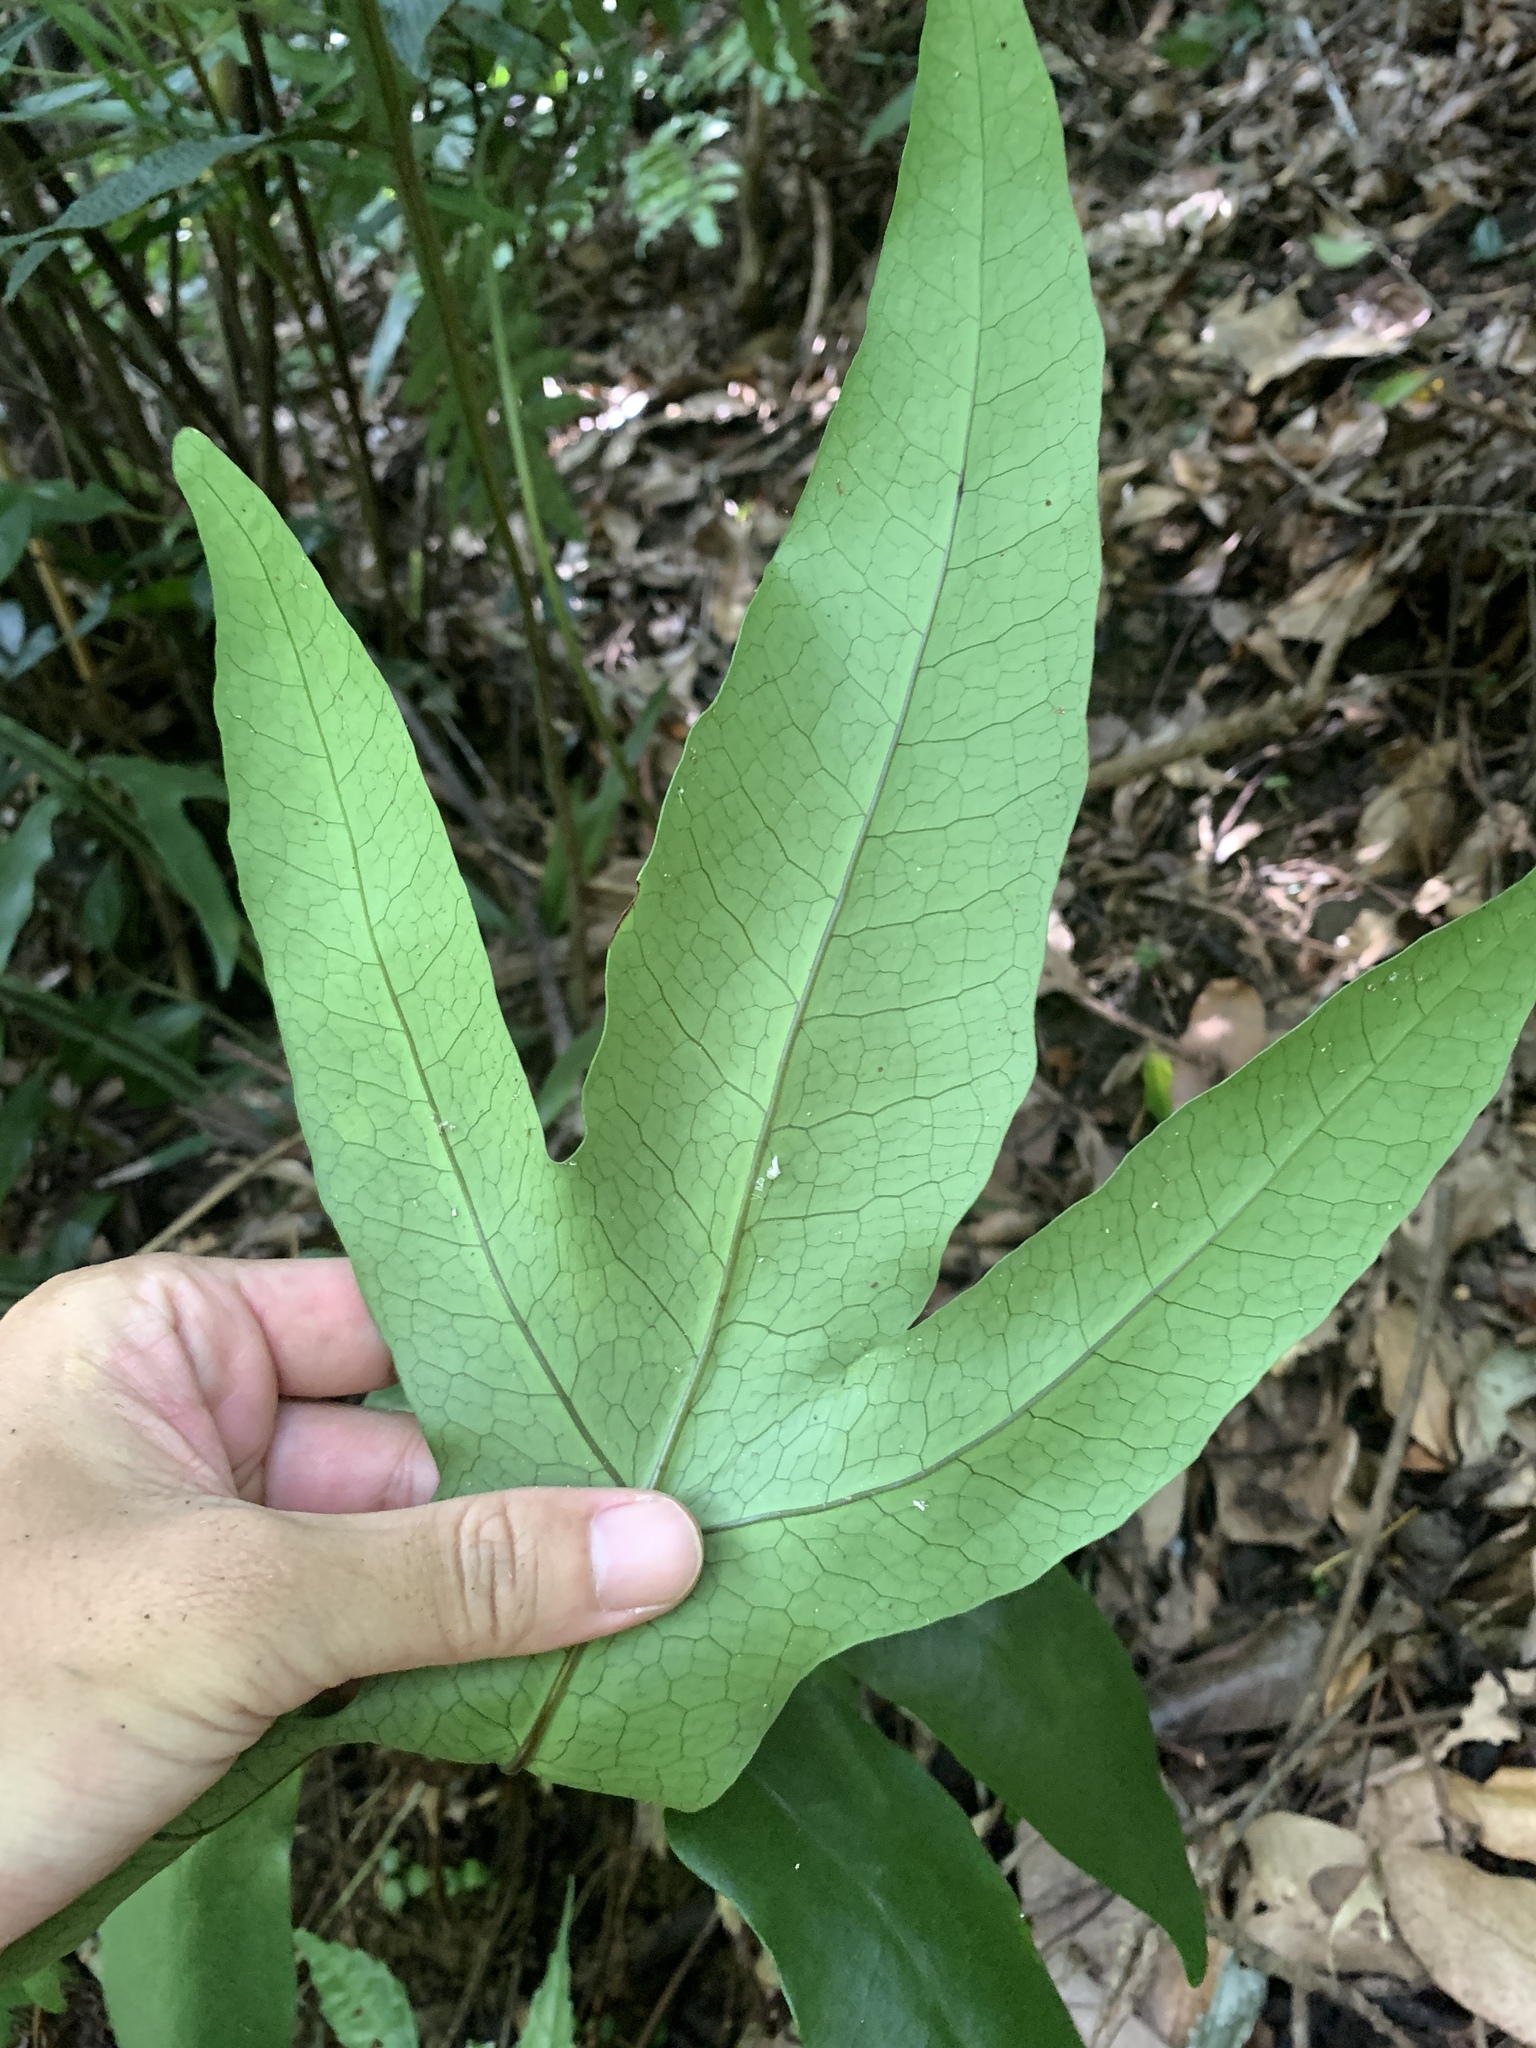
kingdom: Plantae
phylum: Tracheophyta
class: Polypodiopsida
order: Polypodiales
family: Tectariaceae
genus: Tectaria
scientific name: Tectaria decurrens
